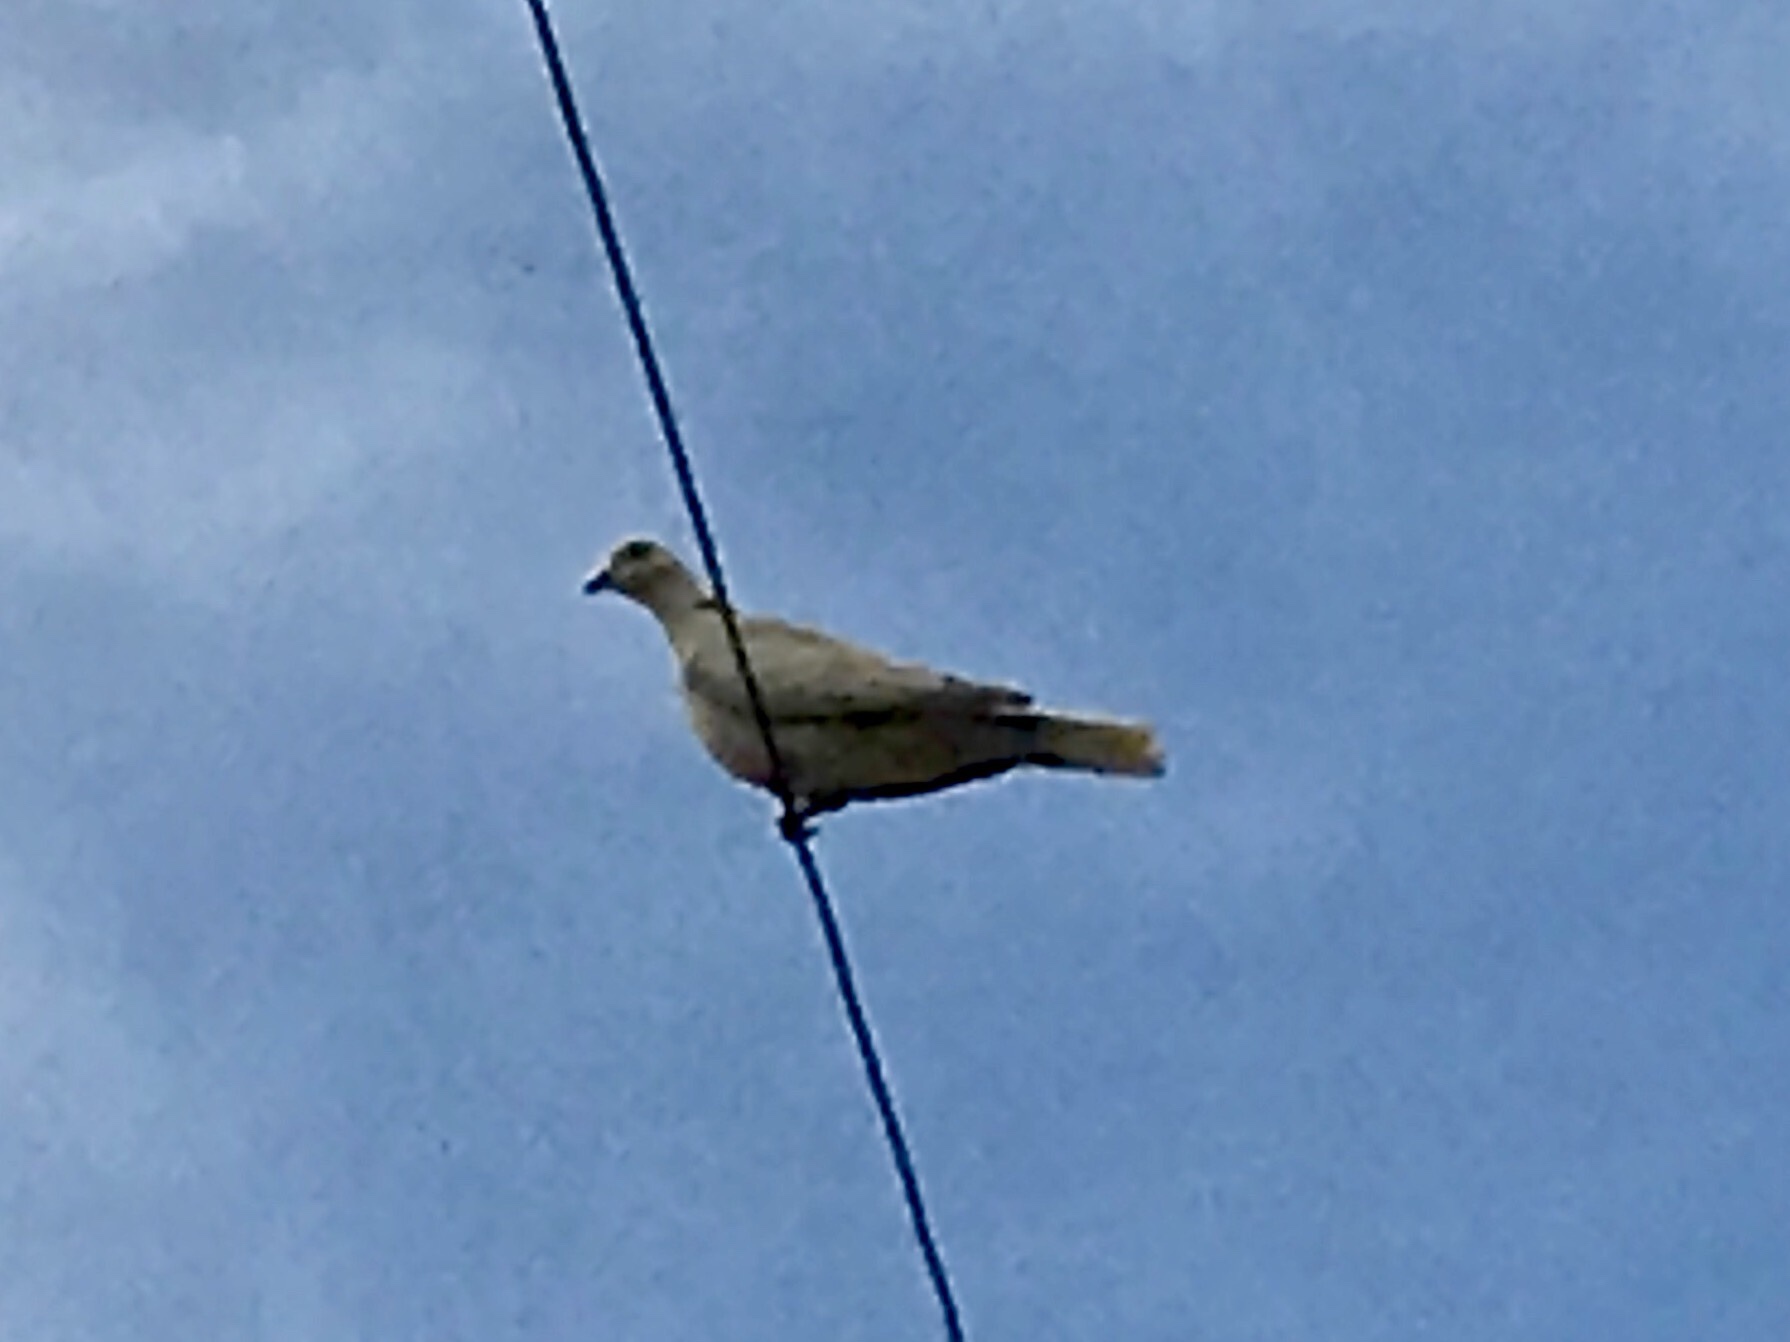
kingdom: Animalia
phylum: Chordata
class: Aves
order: Columbiformes
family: Columbidae
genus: Streptopelia
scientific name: Streptopelia decaocto
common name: Eurasian collared dove
